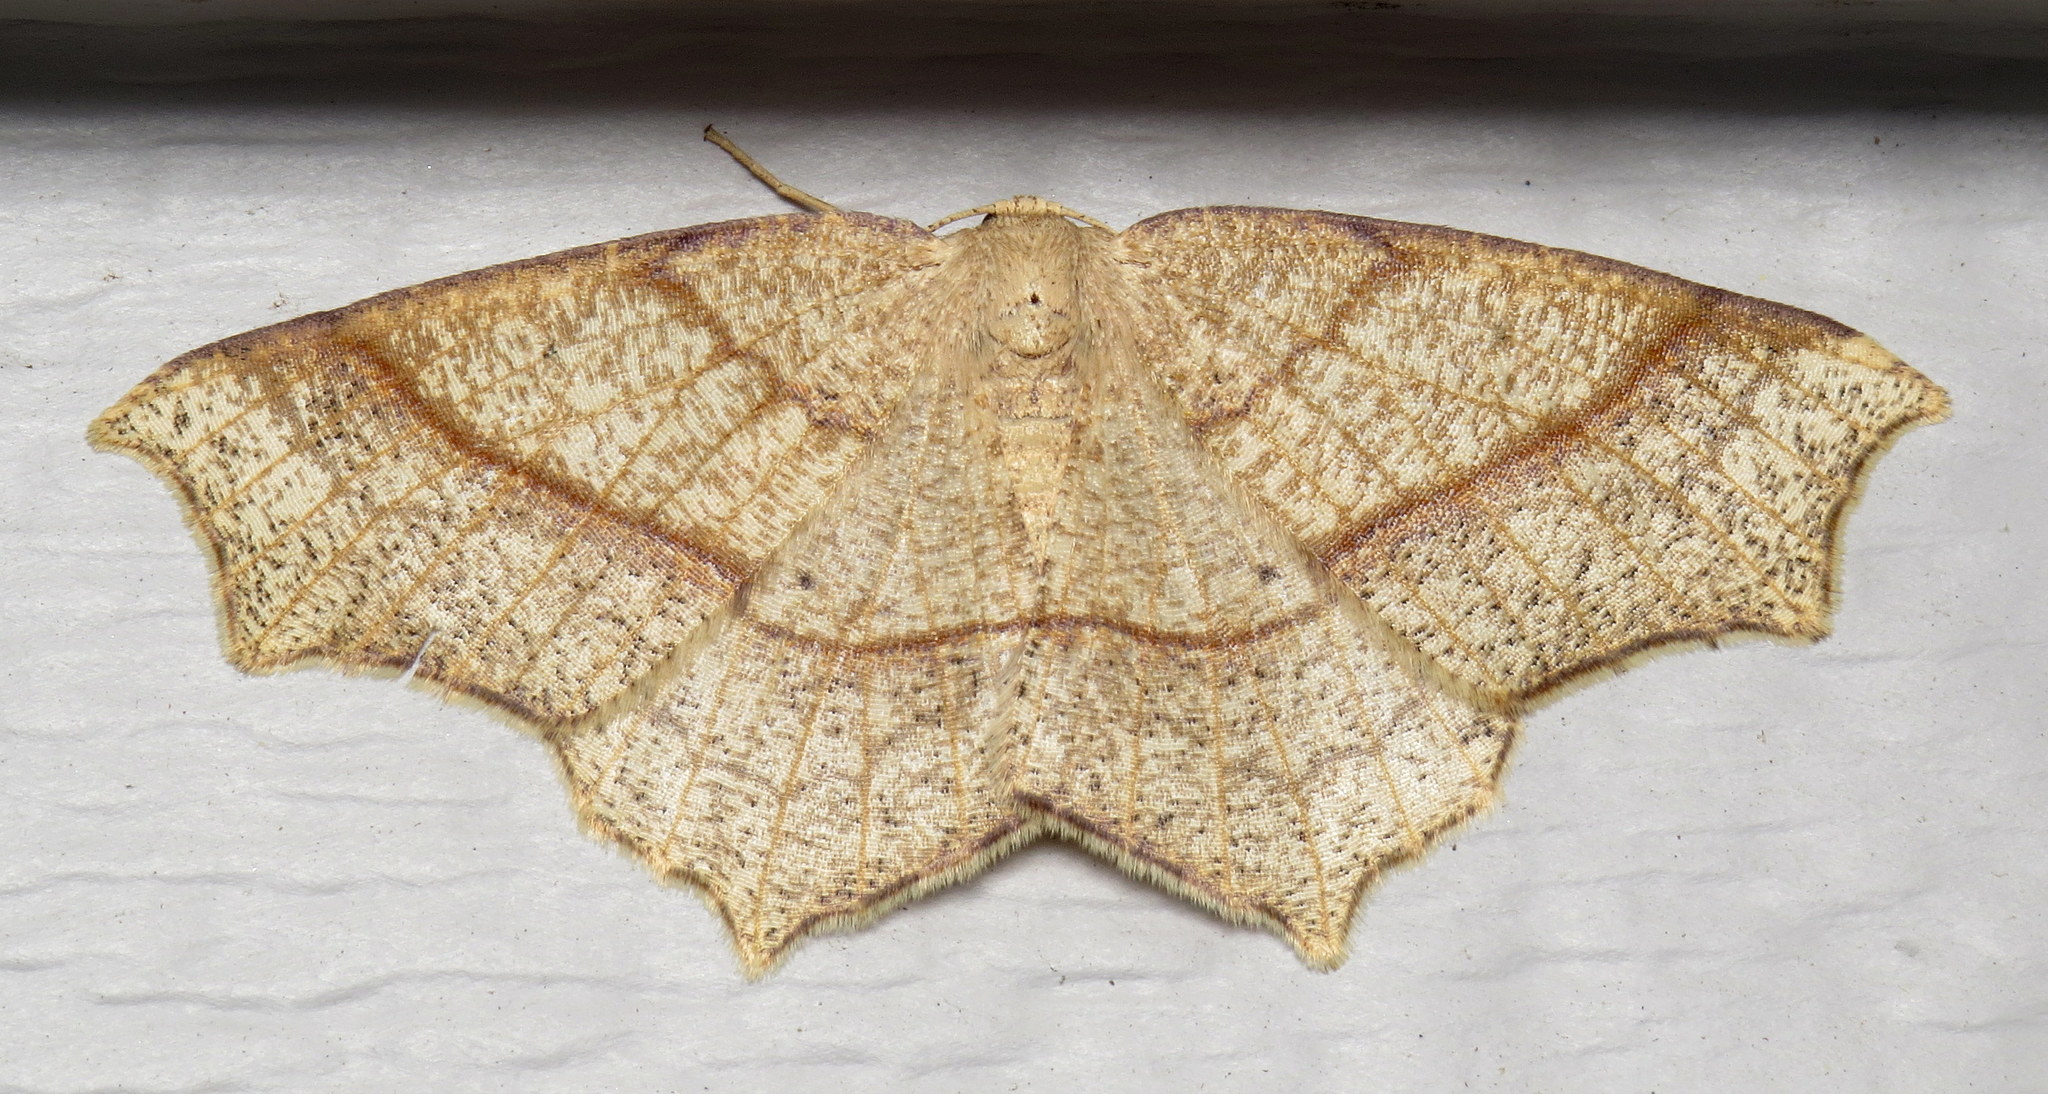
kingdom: Animalia
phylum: Arthropoda
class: Insecta
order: Lepidoptera
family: Geometridae
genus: Besma
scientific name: Besma quercivoraria
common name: Oak besma
